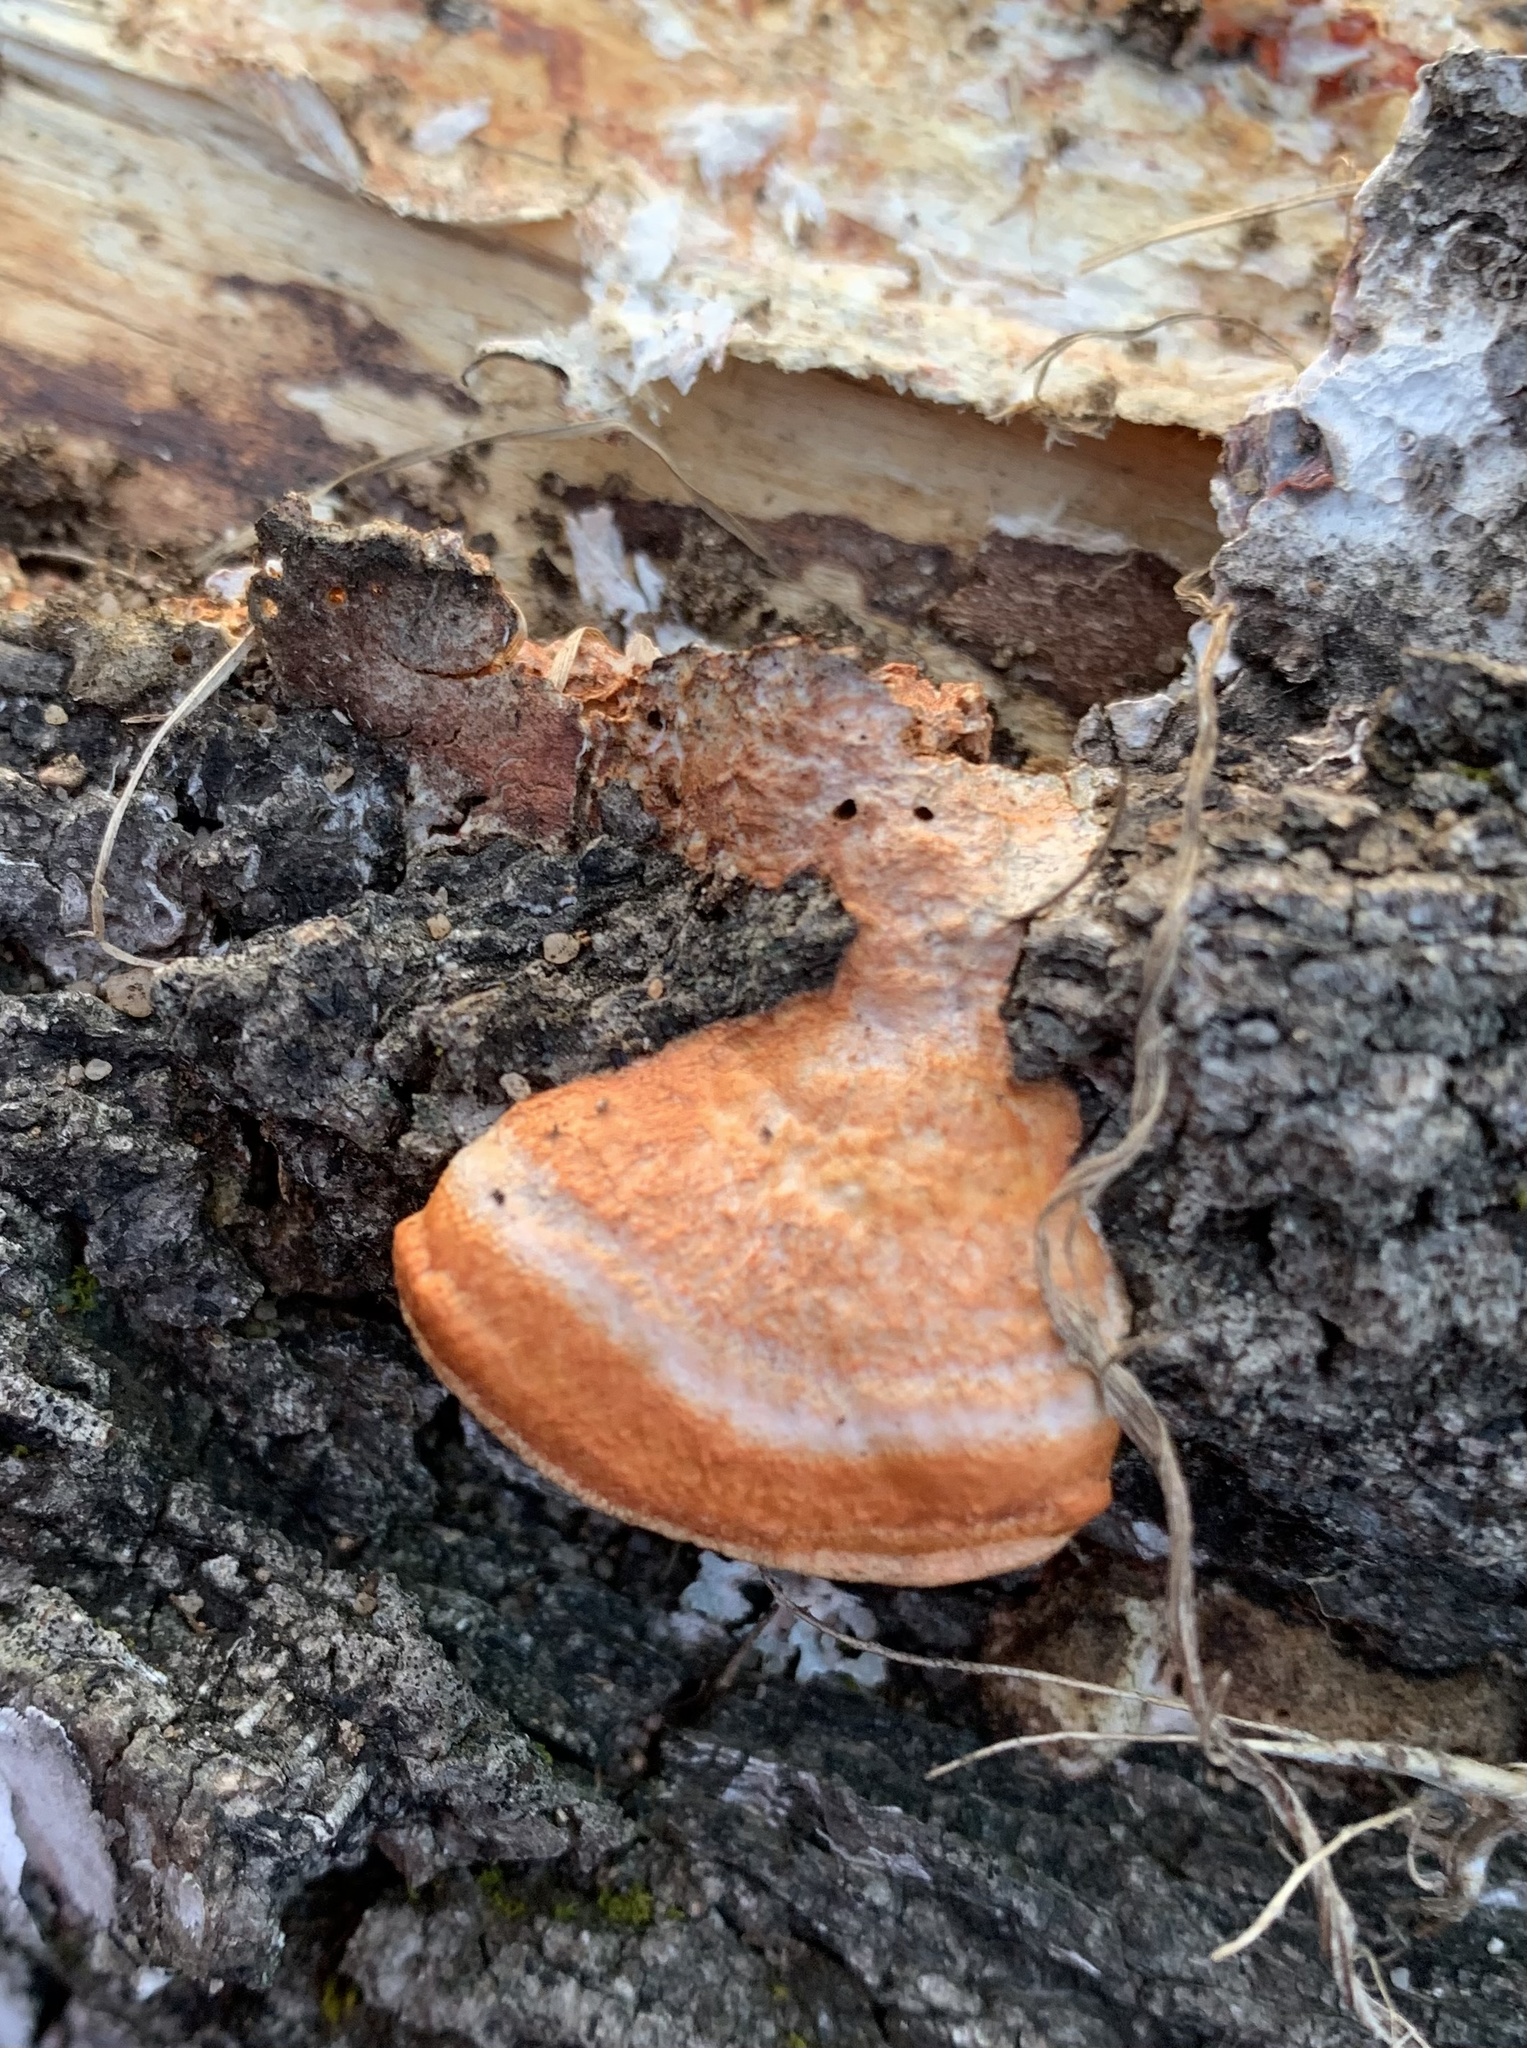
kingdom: Fungi
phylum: Basidiomycota
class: Agaricomycetes
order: Polyporales
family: Polyporaceae
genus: Trametes
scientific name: Trametes cinnabarina
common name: Northern cinnabar polypore
